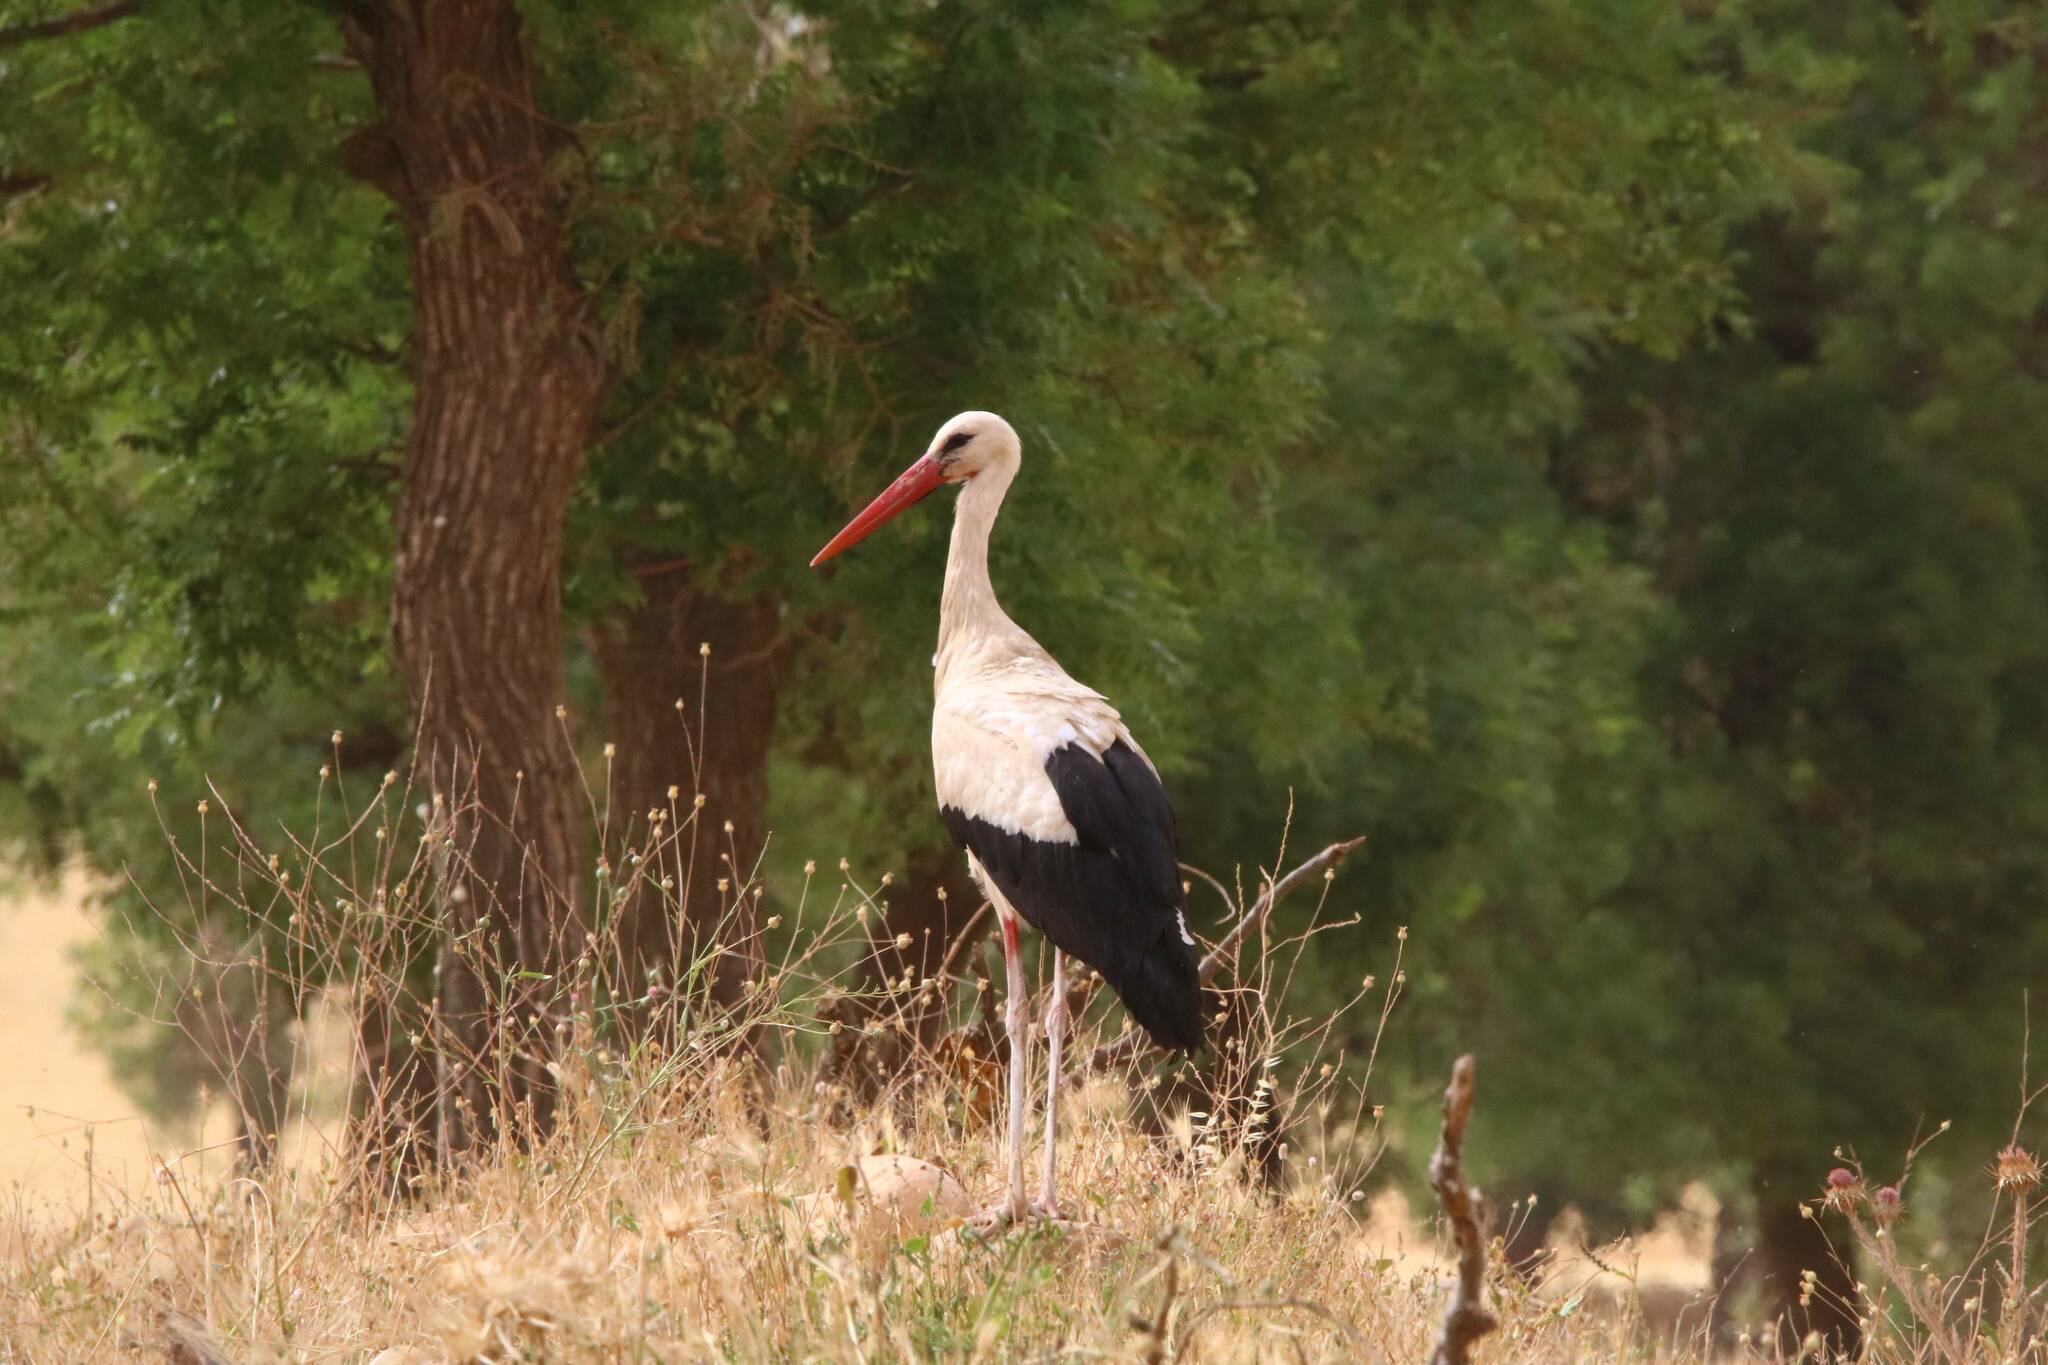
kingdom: Animalia
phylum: Chordata
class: Aves
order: Ciconiiformes
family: Ciconiidae
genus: Ciconia
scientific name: Ciconia ciconia
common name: White stork
